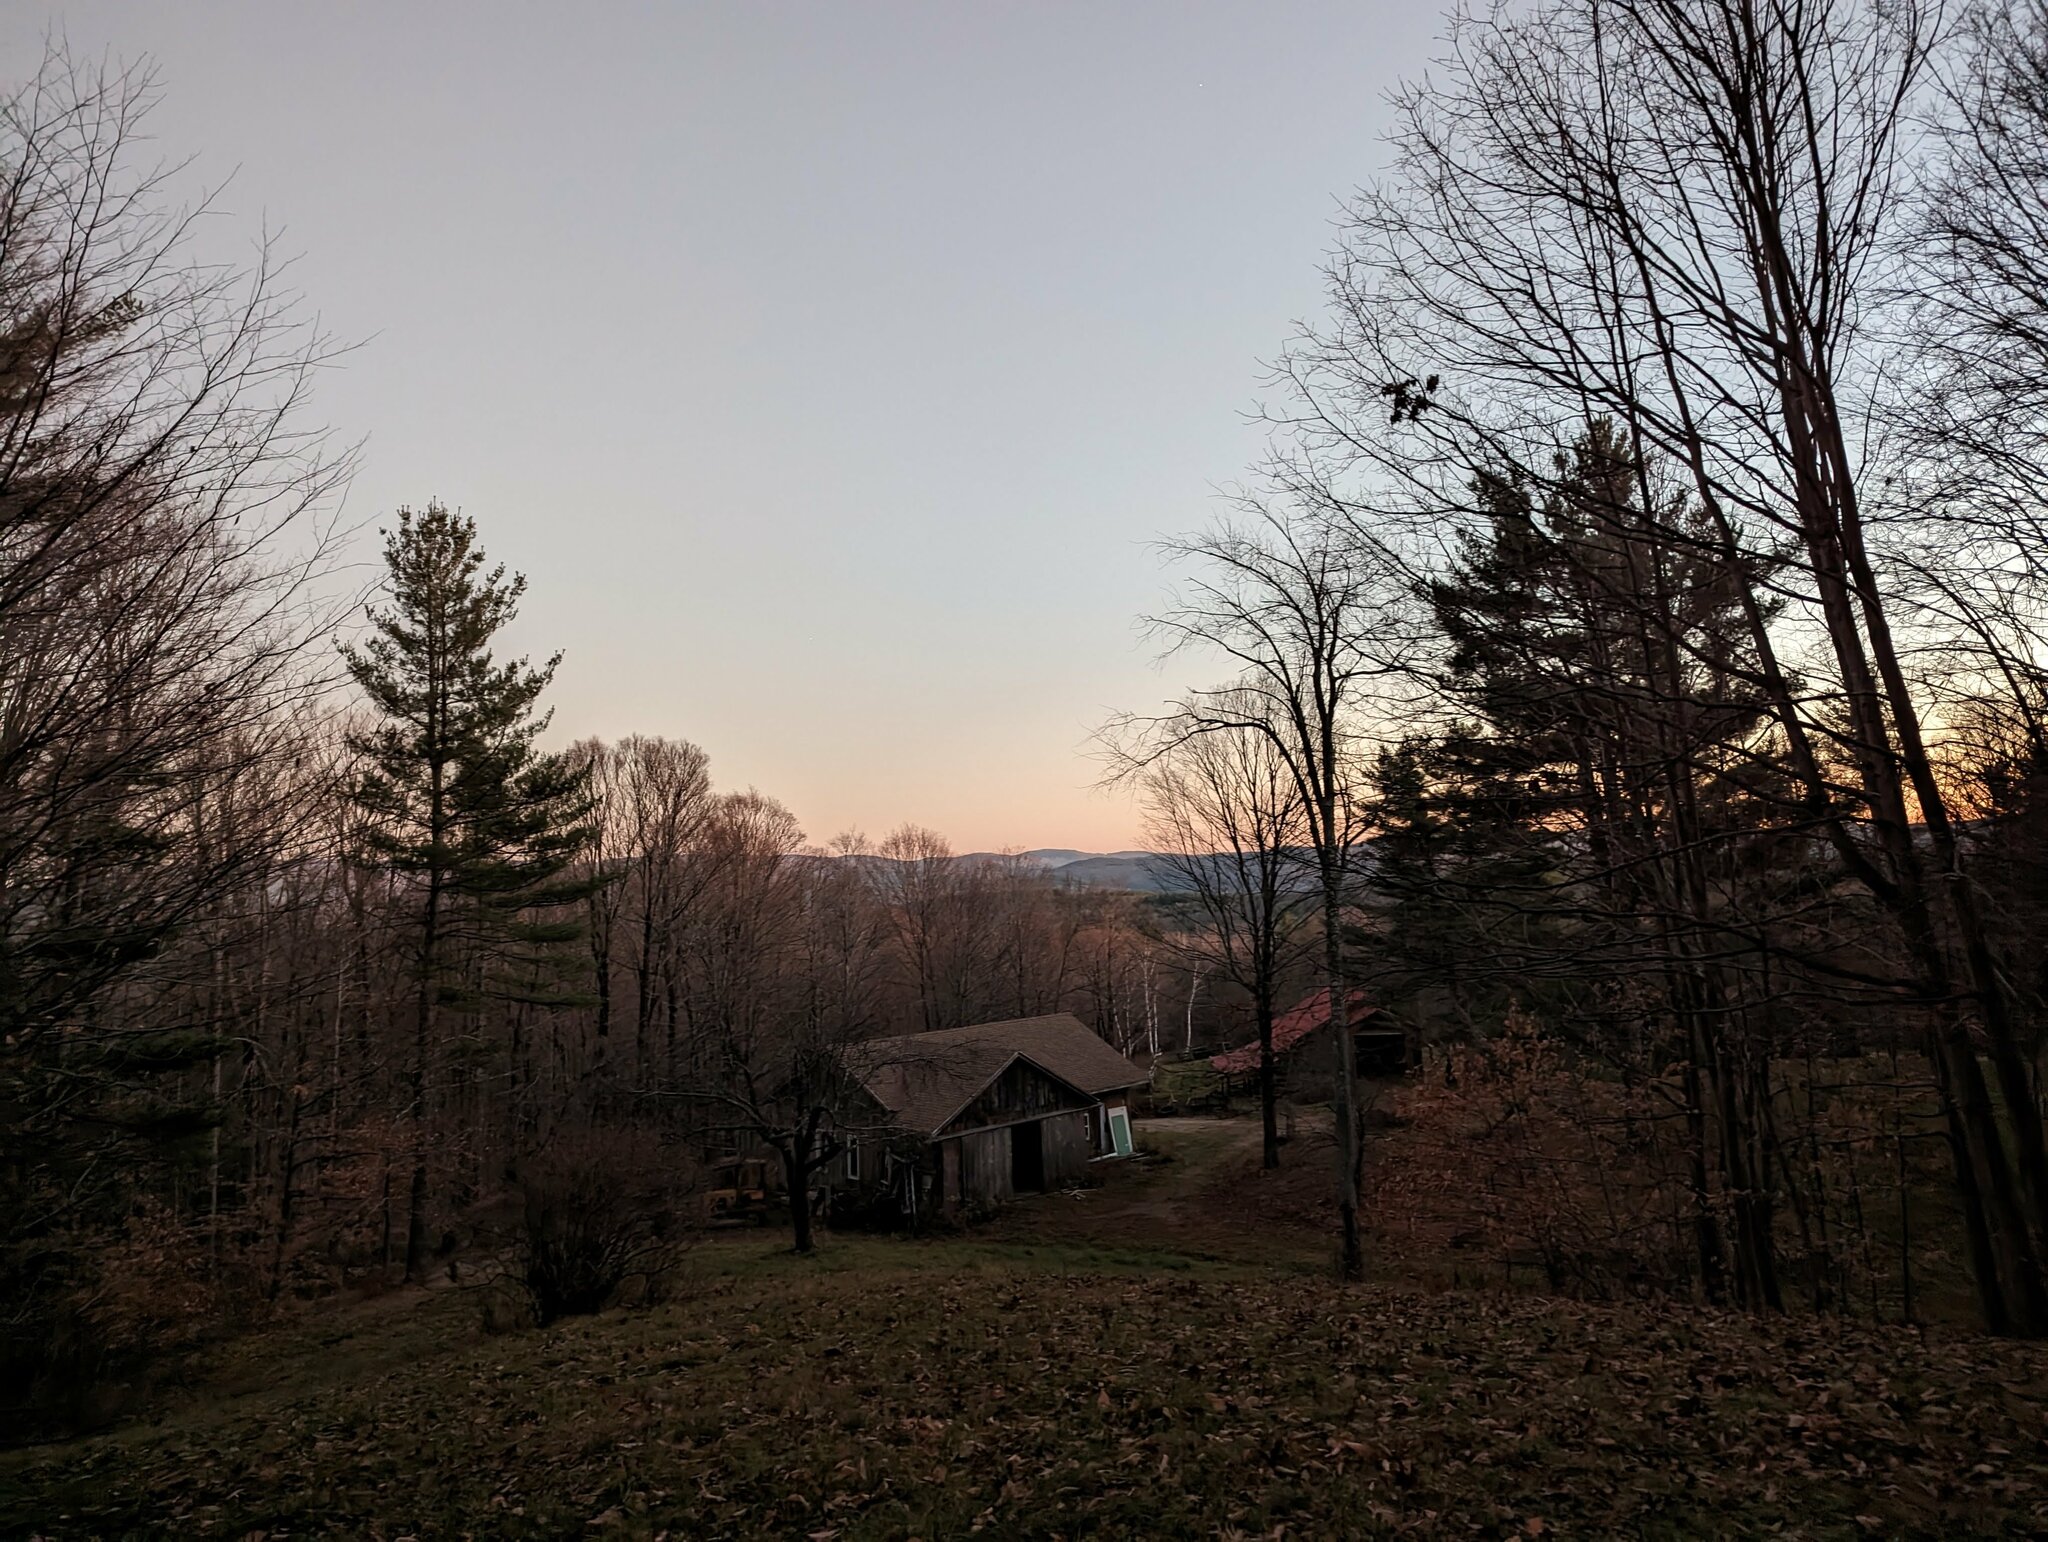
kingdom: Plantae
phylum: Tracheophyta
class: Pinopsida
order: Pinales
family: Pinaceae
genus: Pinus
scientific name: Pinus strobus
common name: Weymouth pine
